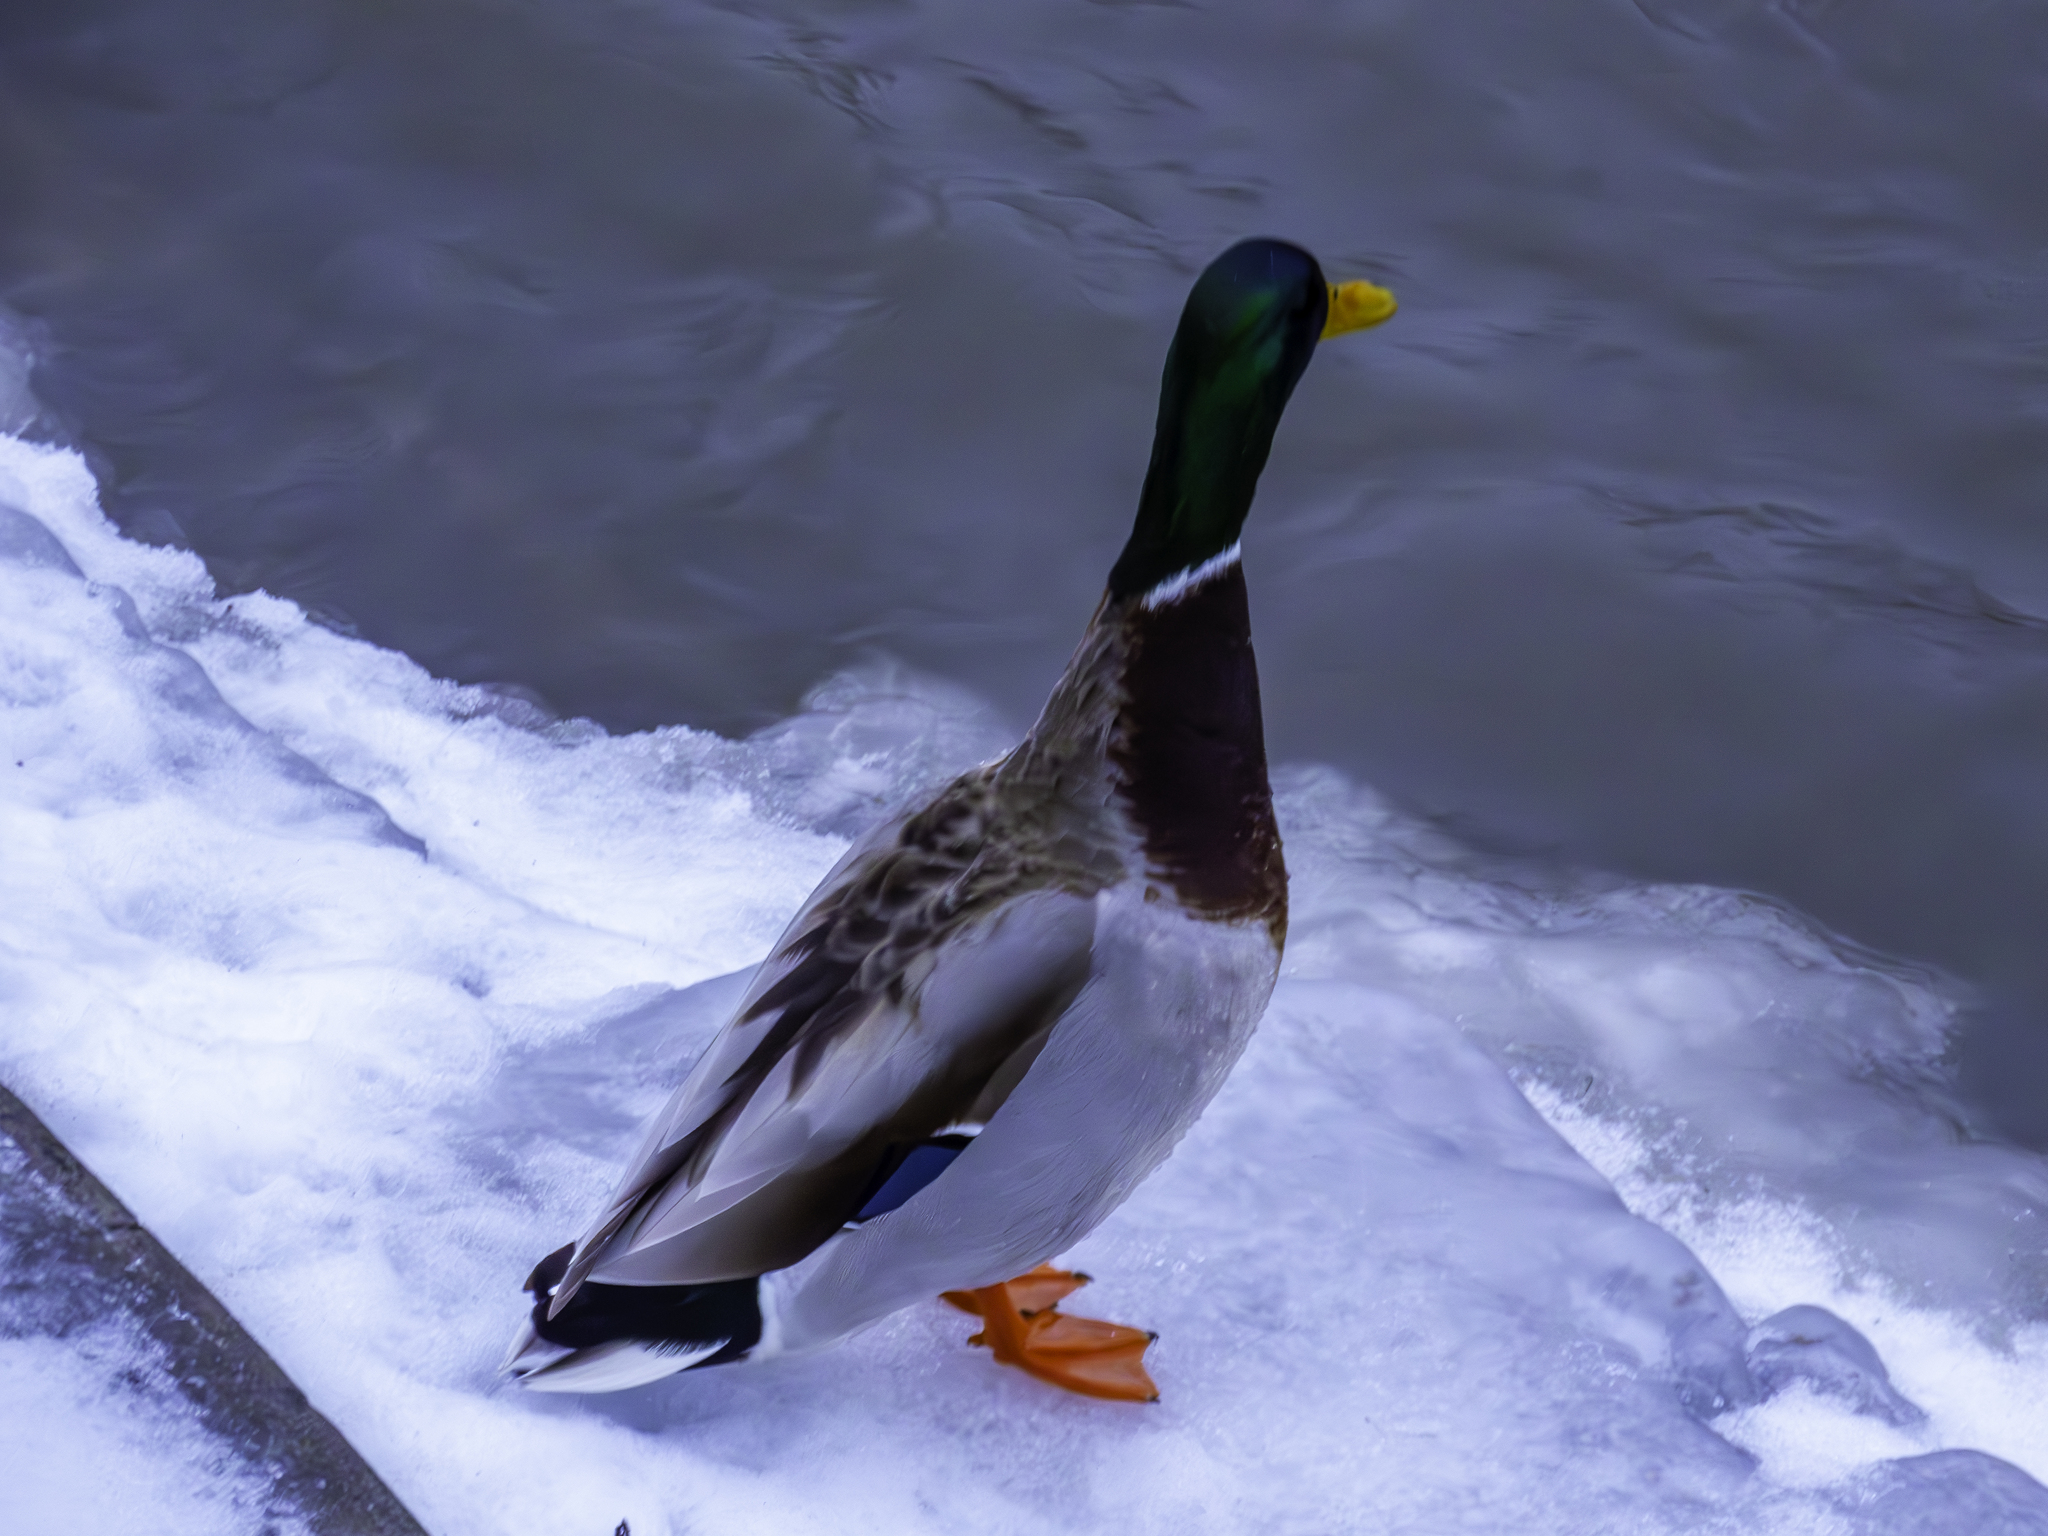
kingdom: Animalia
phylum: Chordata
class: Aves
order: Anseriformes
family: Anatidae
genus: Anas
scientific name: Anas platyrhynchos
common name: Mallard
